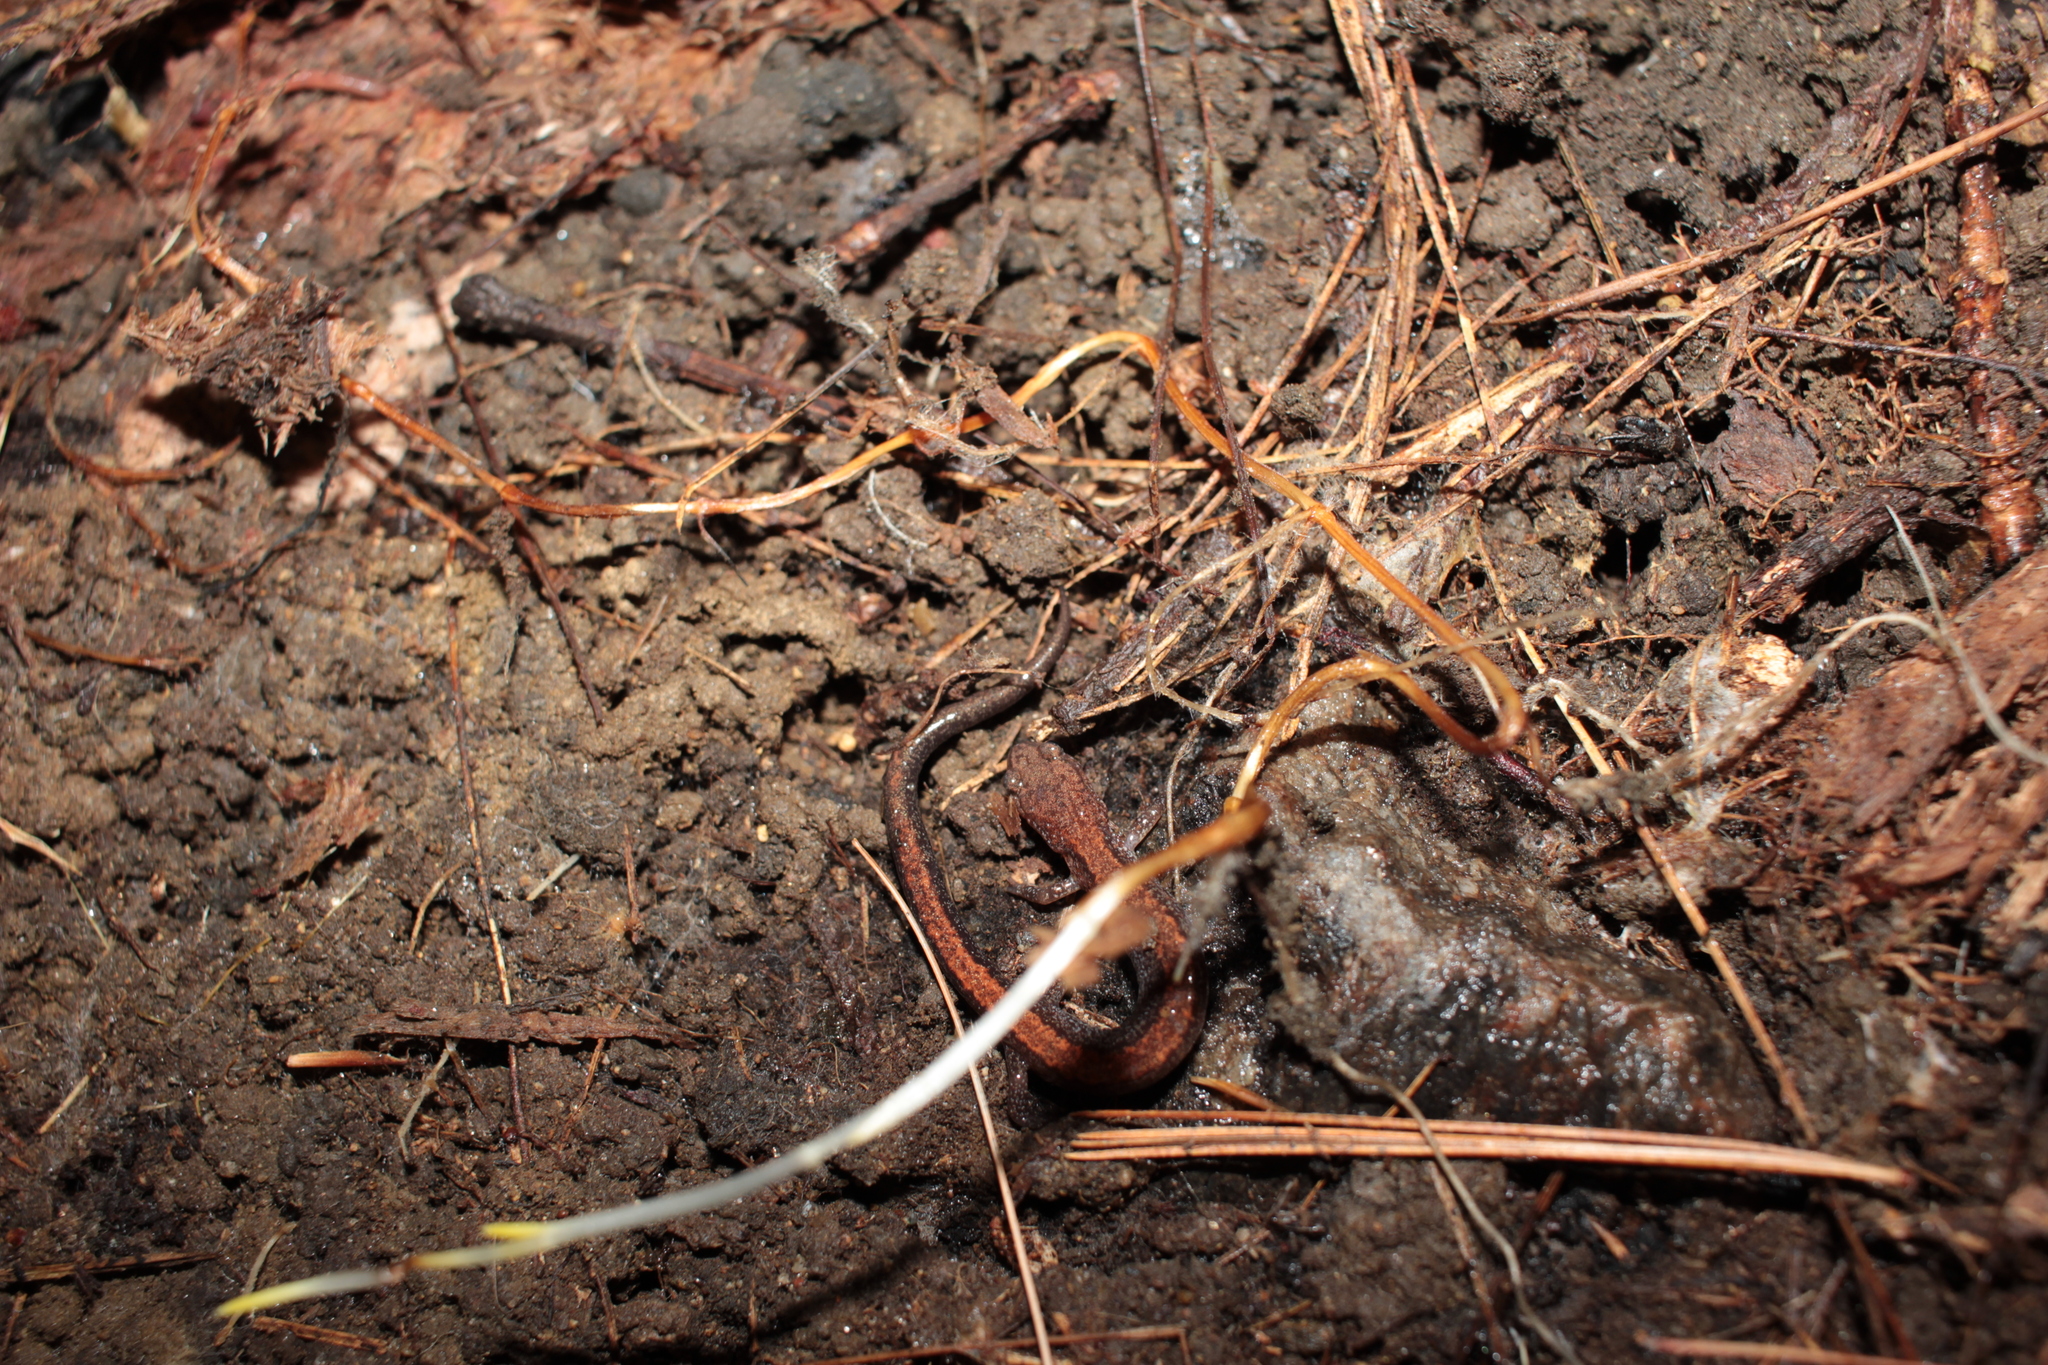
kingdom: Animalia
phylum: Chordata
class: Amphibia
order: Caudata
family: Plethodontidae
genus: Plethodon
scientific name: Plethodon cinereus
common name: Redback salamander
